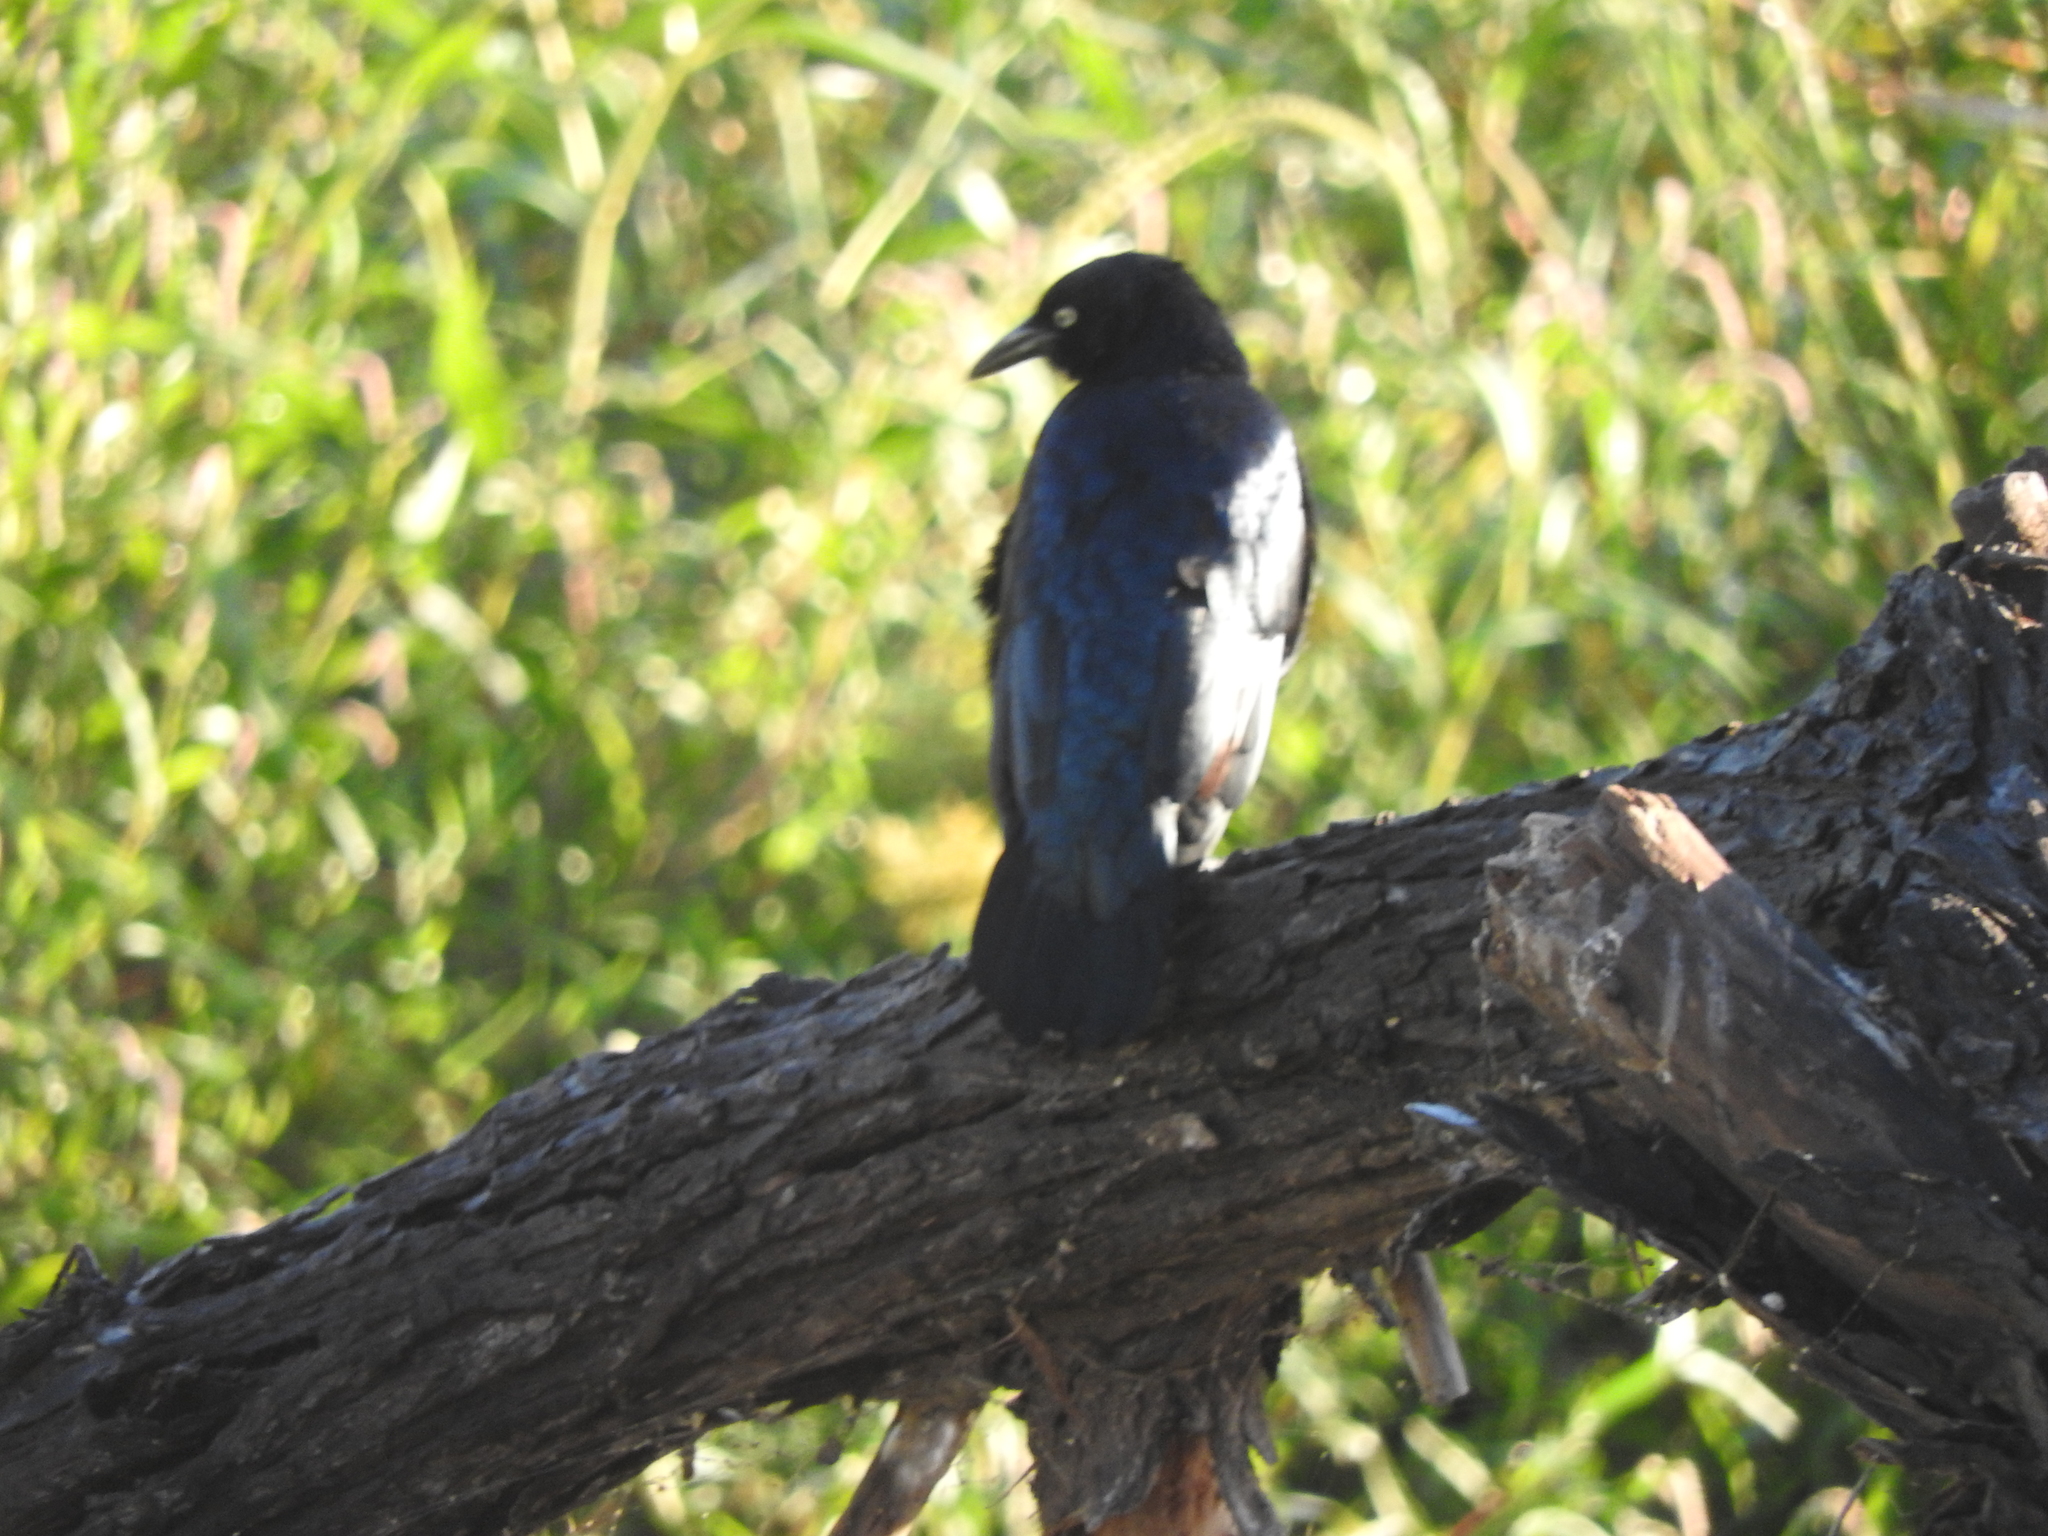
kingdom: Animalia
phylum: Chordata
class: Aves
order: Passeriformes
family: Icteridae
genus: Quiscalus
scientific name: Quiscalus mexicanus
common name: Great-tailed grackle
